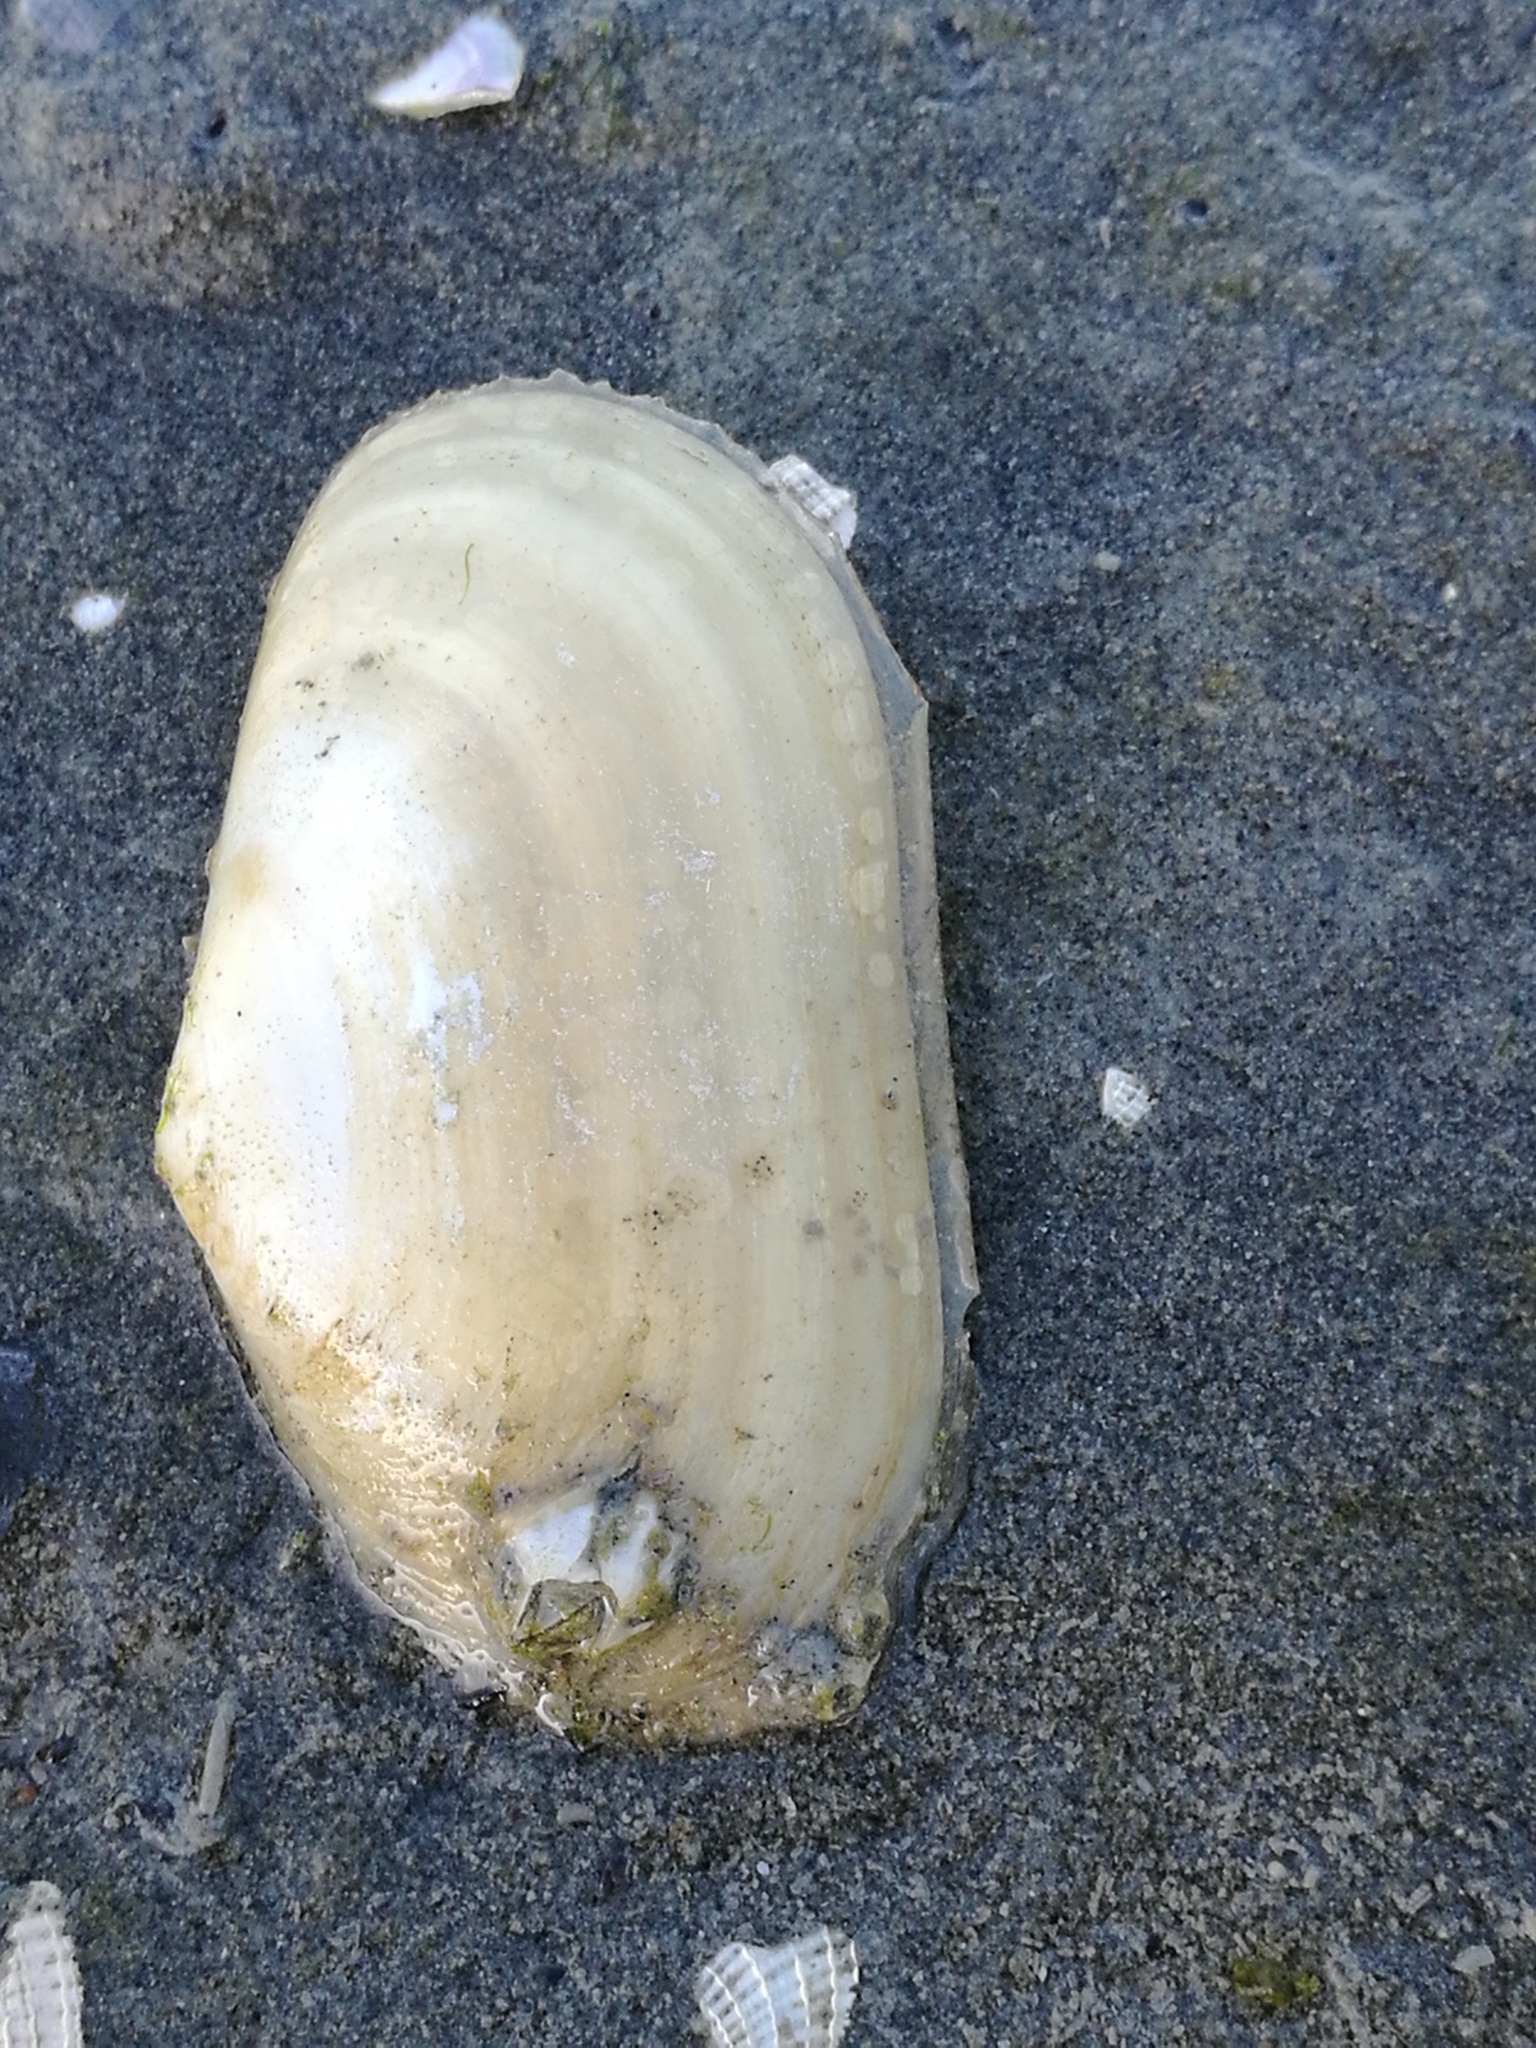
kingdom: Animalia
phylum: Mollusca
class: Bivalvia
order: Venerida
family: Mesodesmatidae
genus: Paphies
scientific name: Paphies australis
